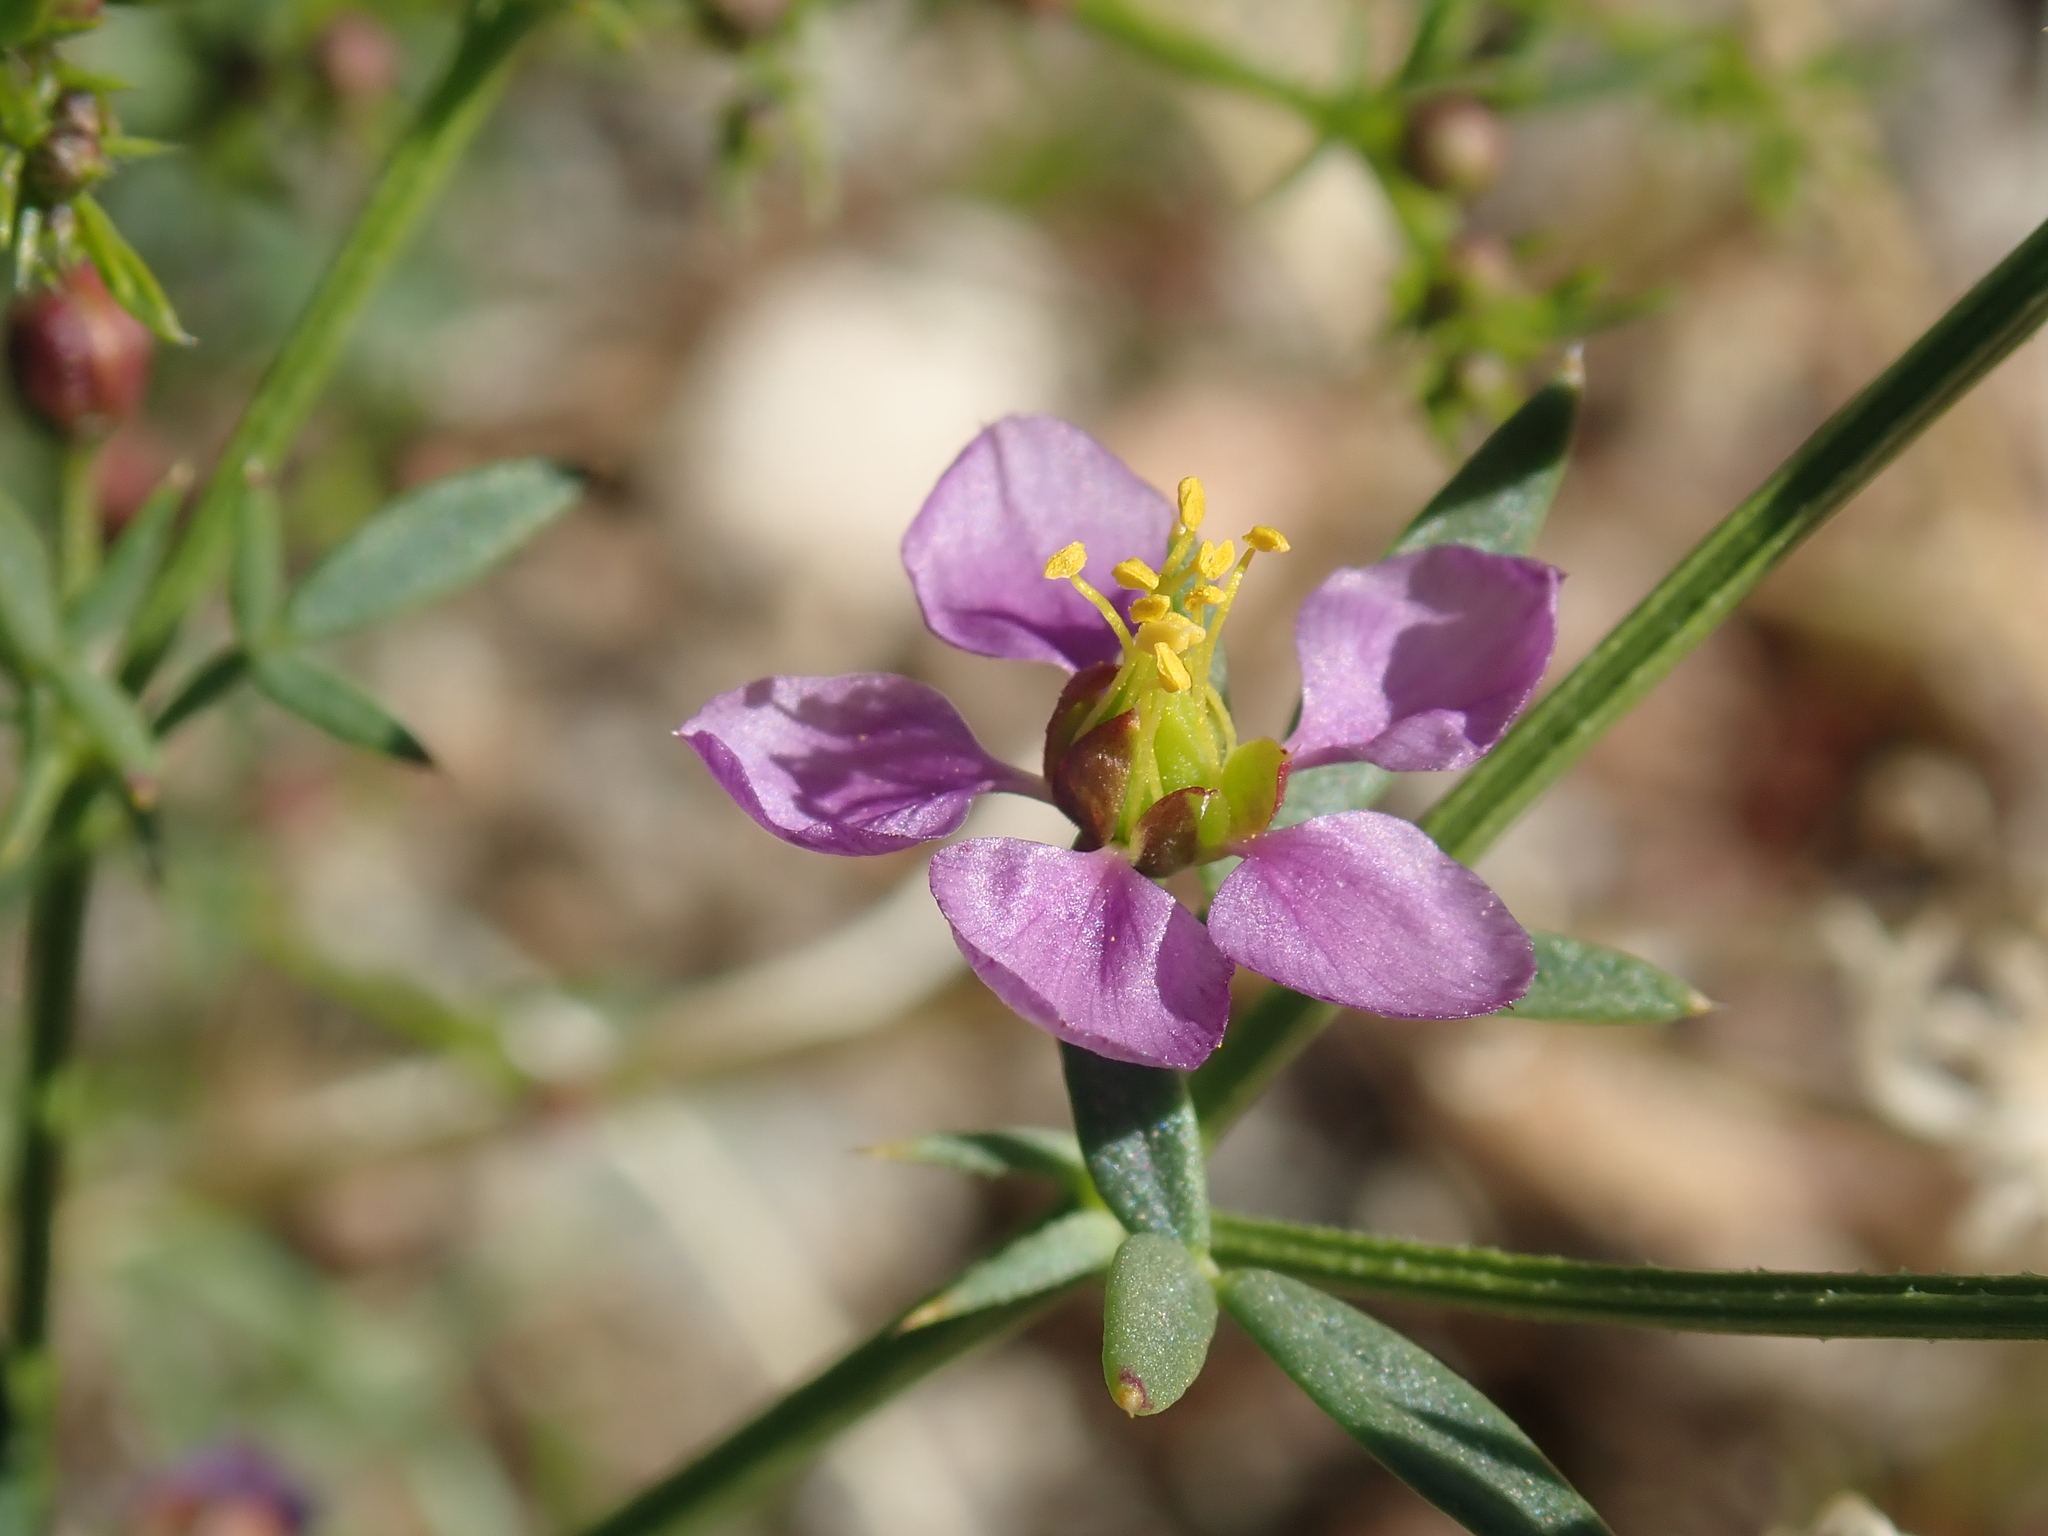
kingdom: Plantae
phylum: Tracheophyta
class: Magnoliopsida
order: Zygophyllales
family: Zygophyllaceae
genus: Fagonia
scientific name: Fagonia laevis
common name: California fagonbush
